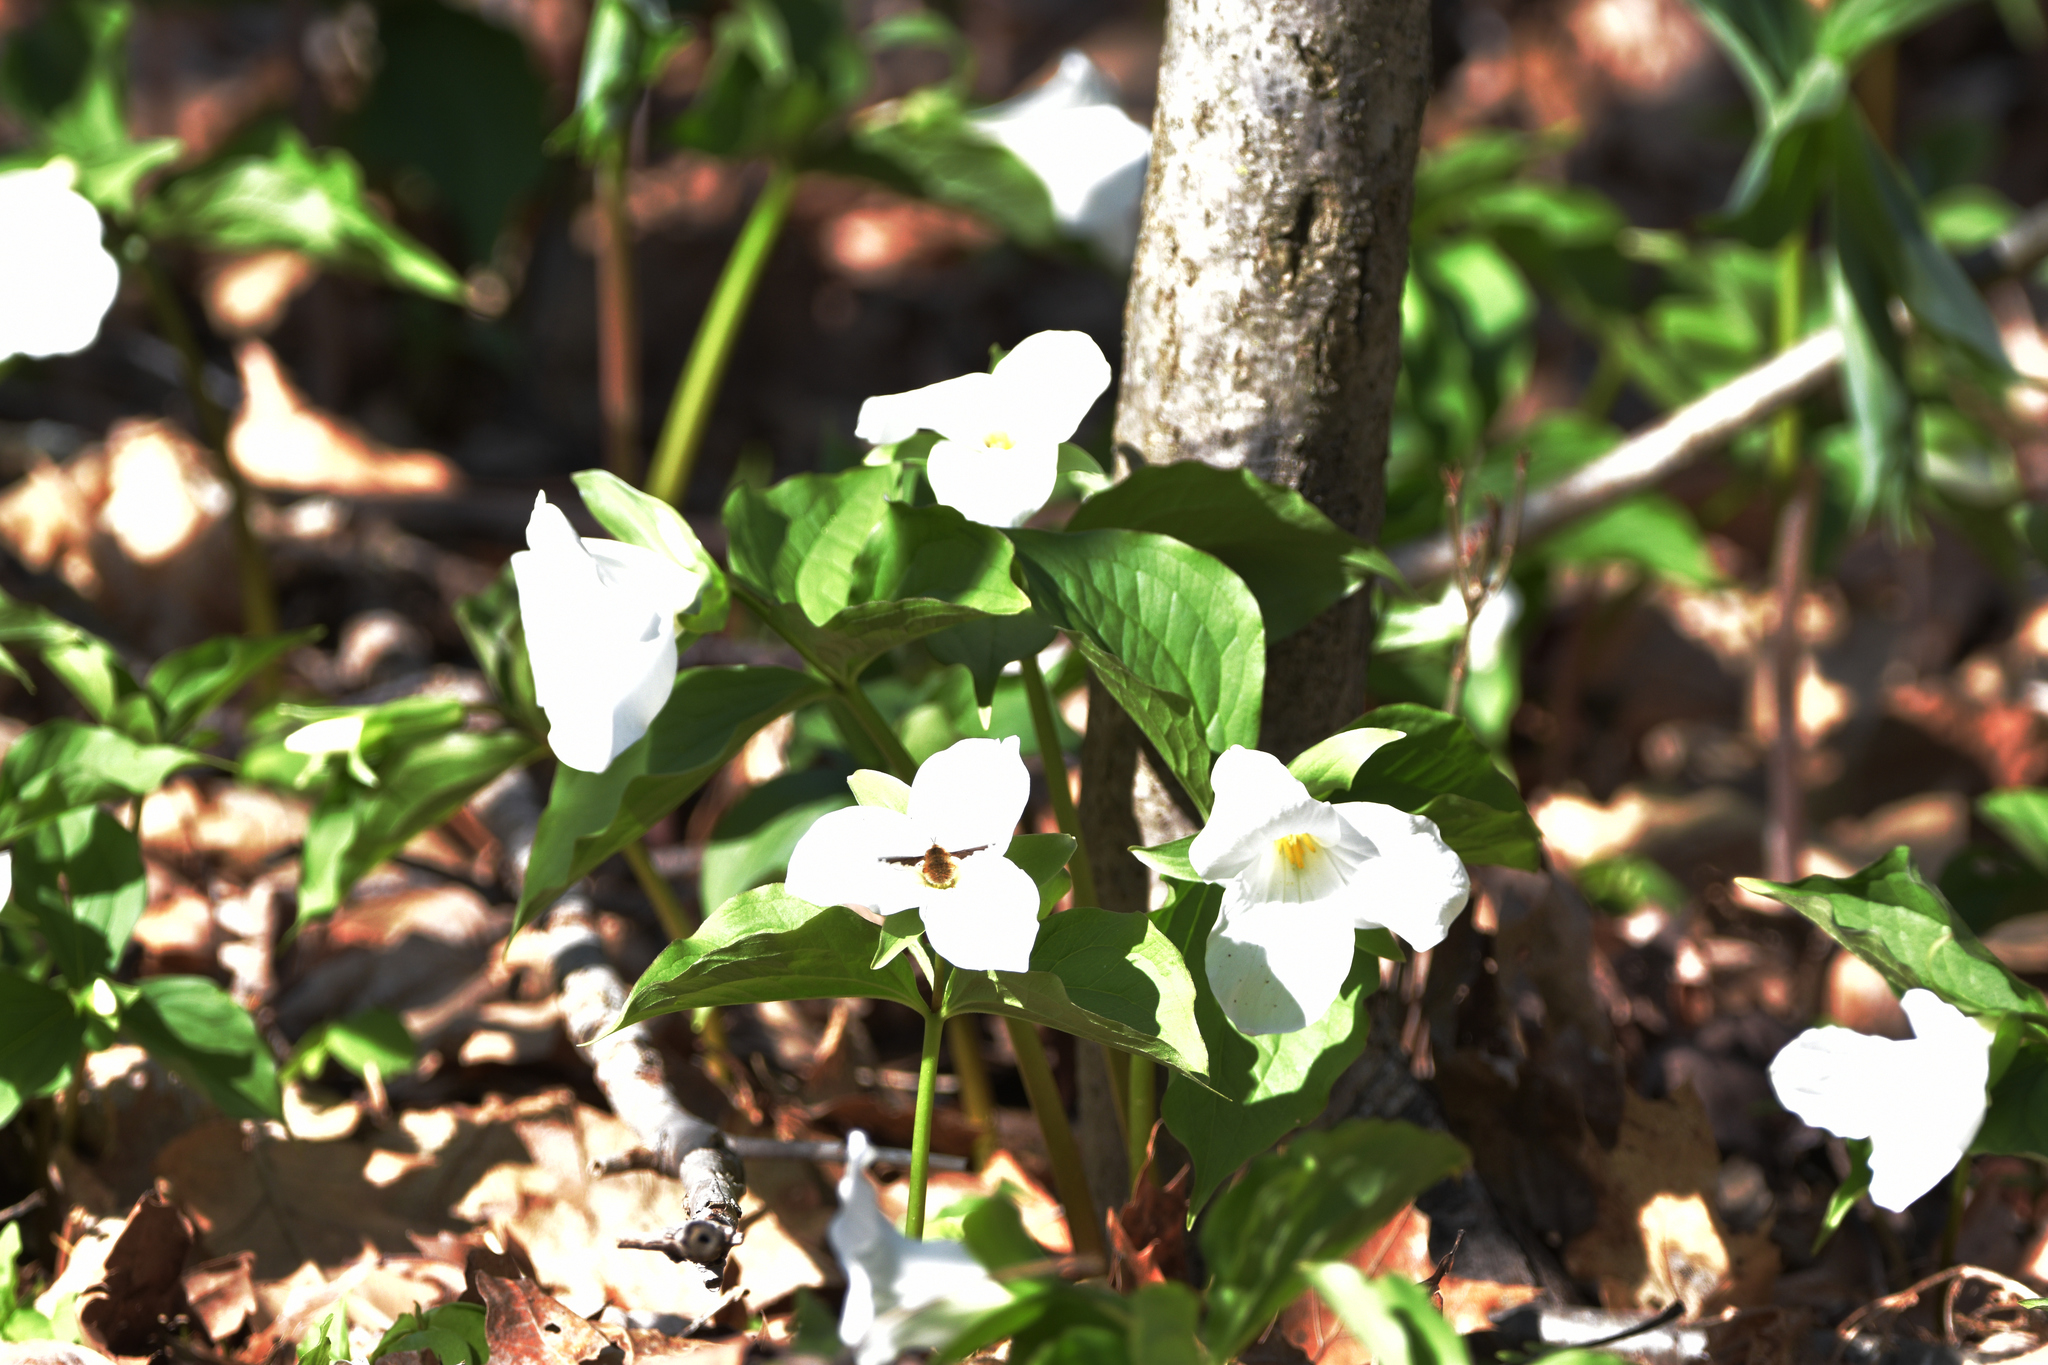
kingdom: Plantae
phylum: Tracheophyta
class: Liliopsida
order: Liliales
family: Melanthiaceae
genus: Trillium
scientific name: Trillium grandiflorum
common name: Great white trillium
